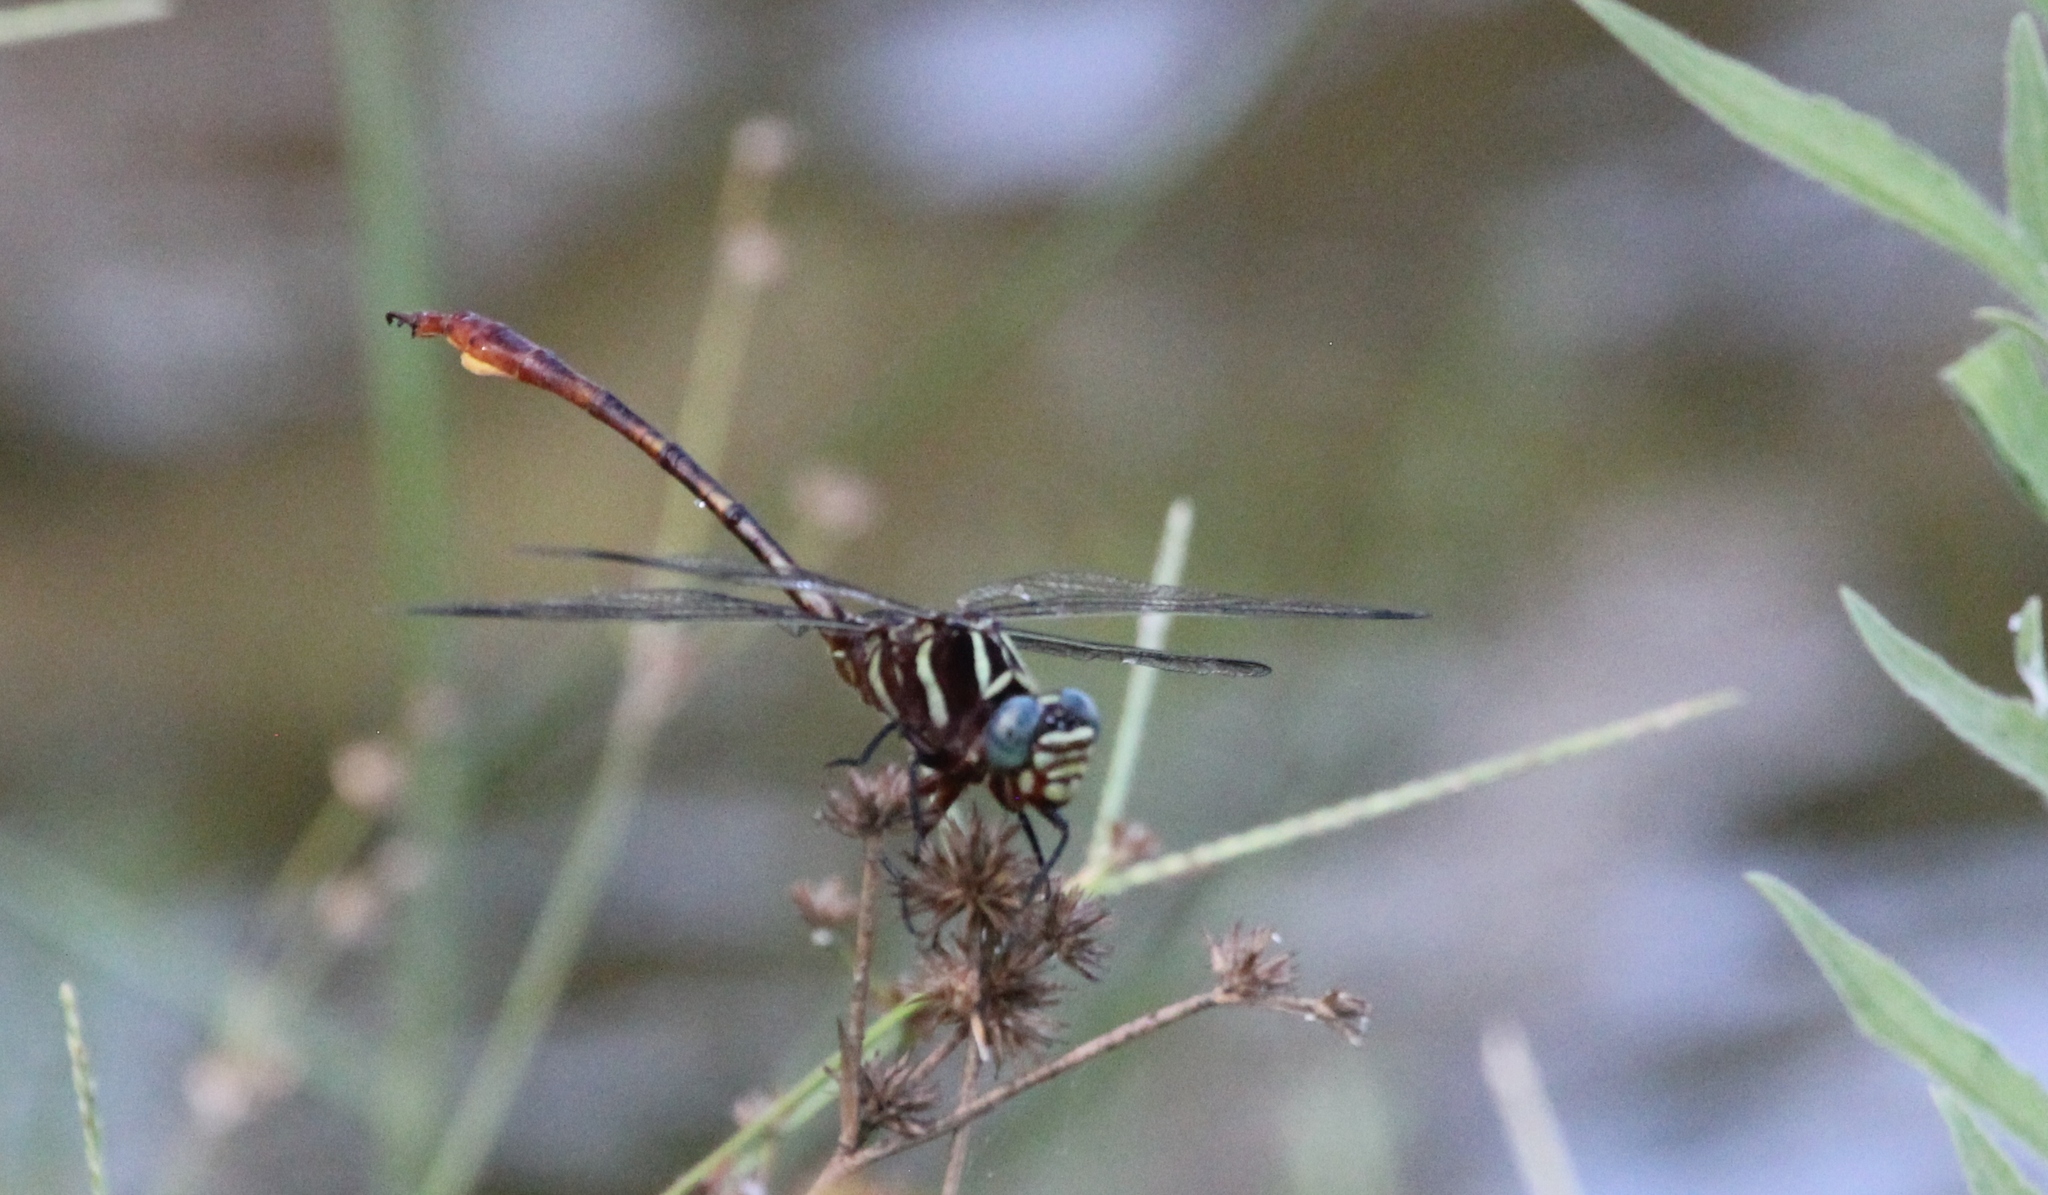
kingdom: Animalia
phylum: Arthropoda
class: Insecta
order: Odonata
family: Gomphidae
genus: Aphylla
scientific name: Aphylla williamsoni
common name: Two-striped forceptail
